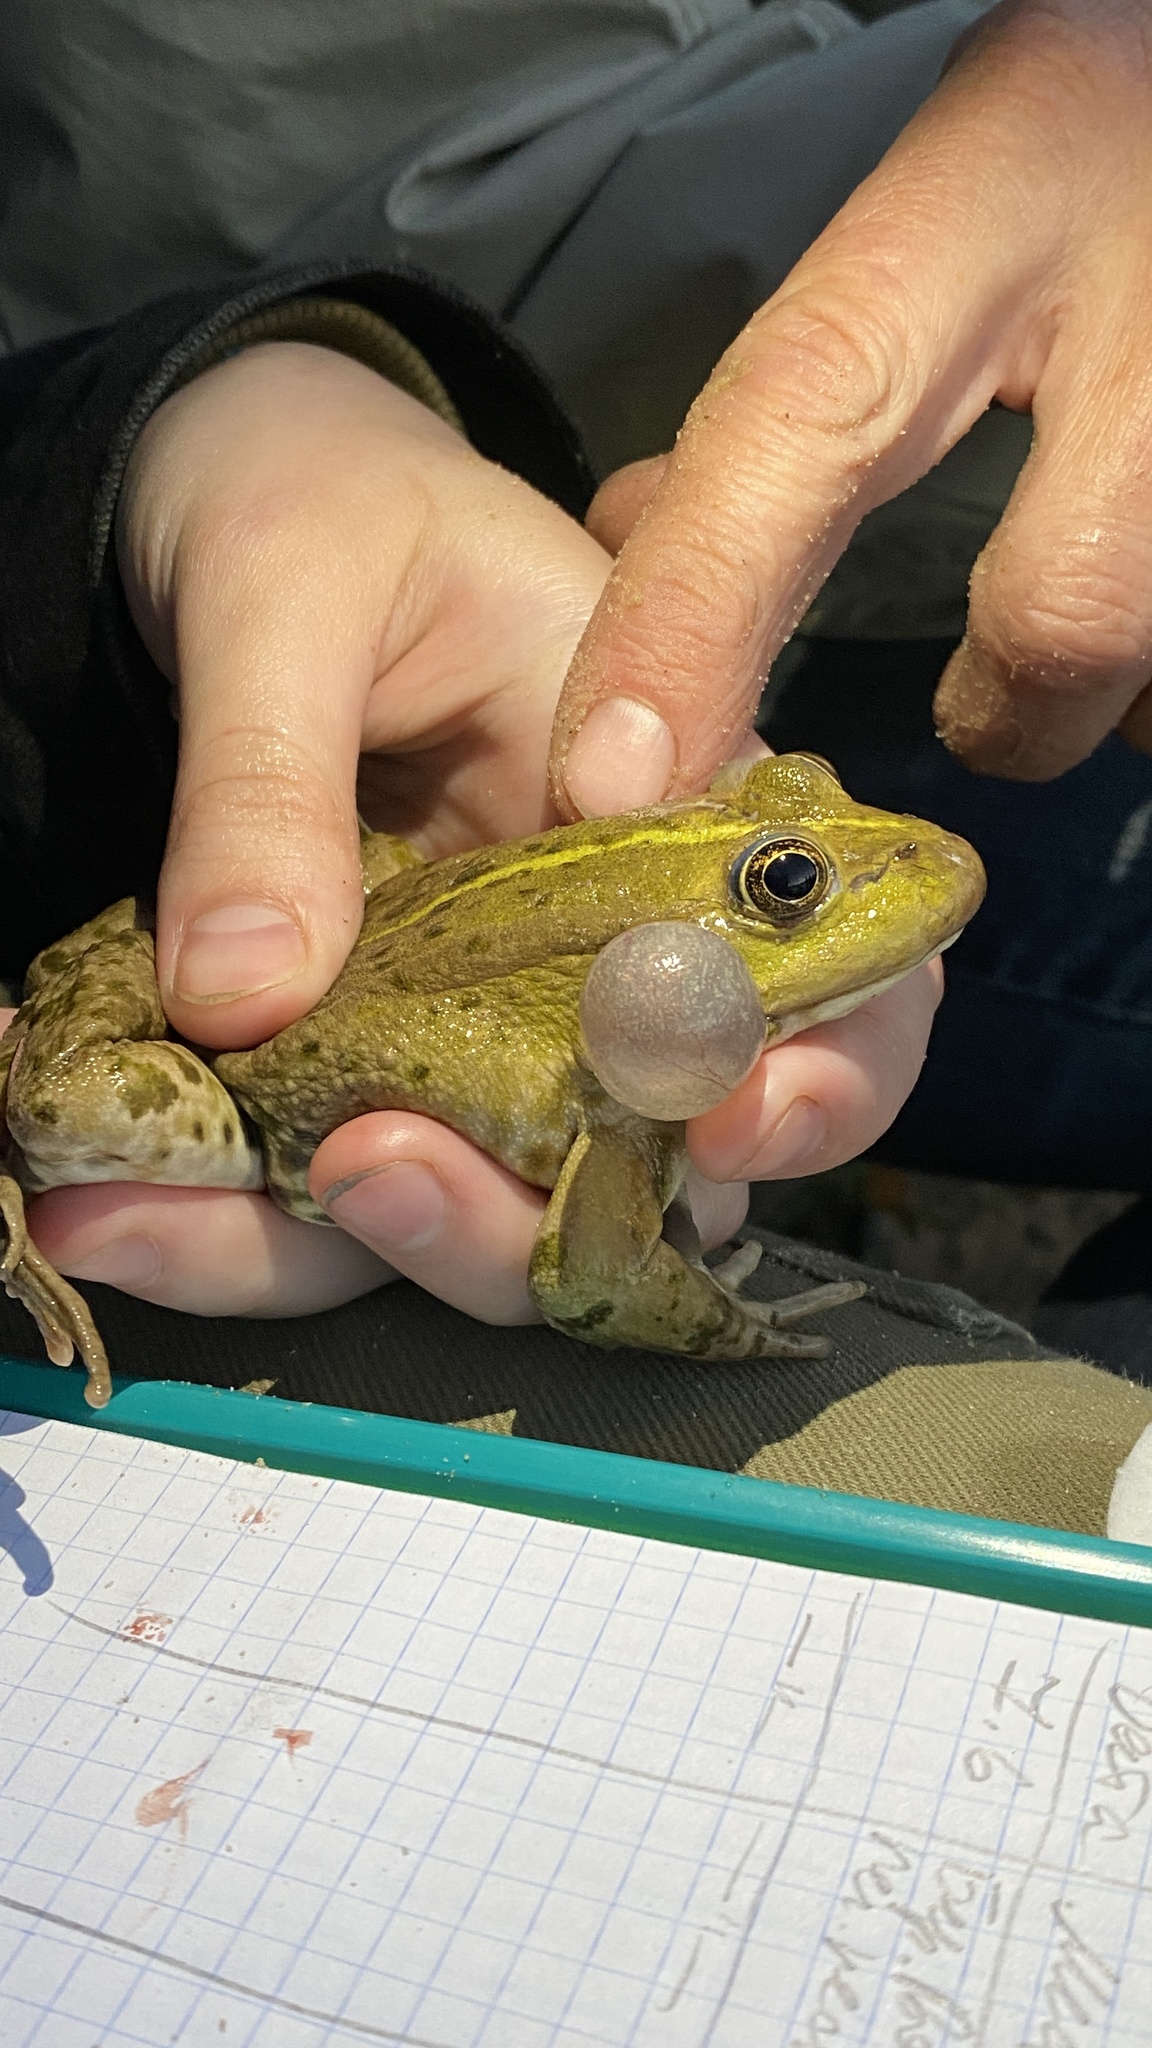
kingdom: Animalia
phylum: Chordata
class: Amphibia
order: Anura
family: Ranidae
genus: Pelophylax
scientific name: Pelophylax ridibundus
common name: Marsh frog
